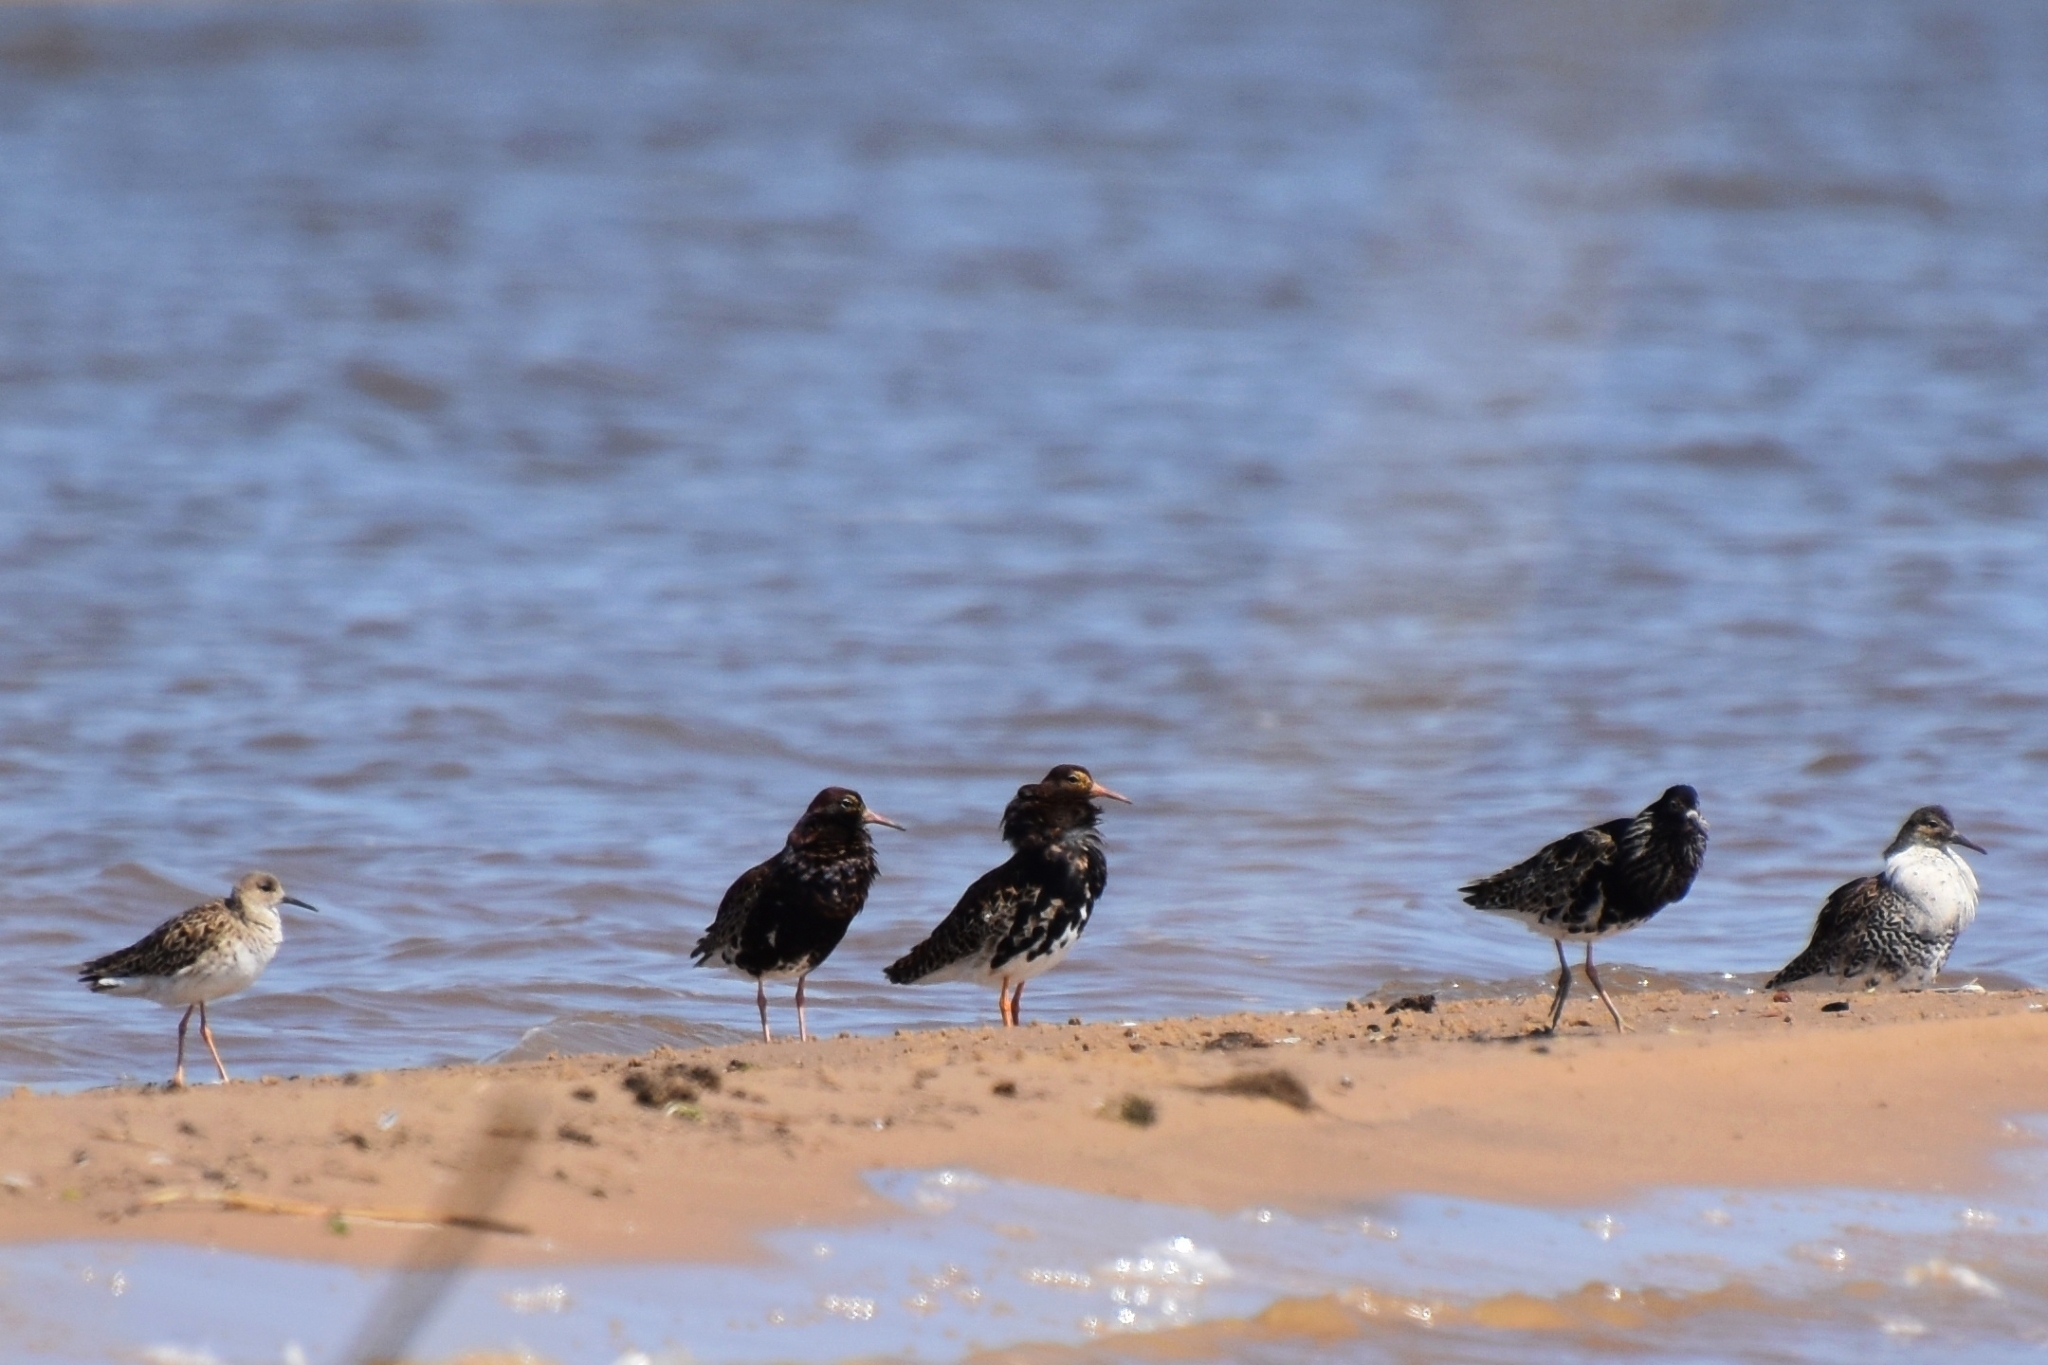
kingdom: Animalia
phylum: Chordata
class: Aves
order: Charadriiformes
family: Scolopacidae
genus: Calidris
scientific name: Calidris pugnax
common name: Ruff
